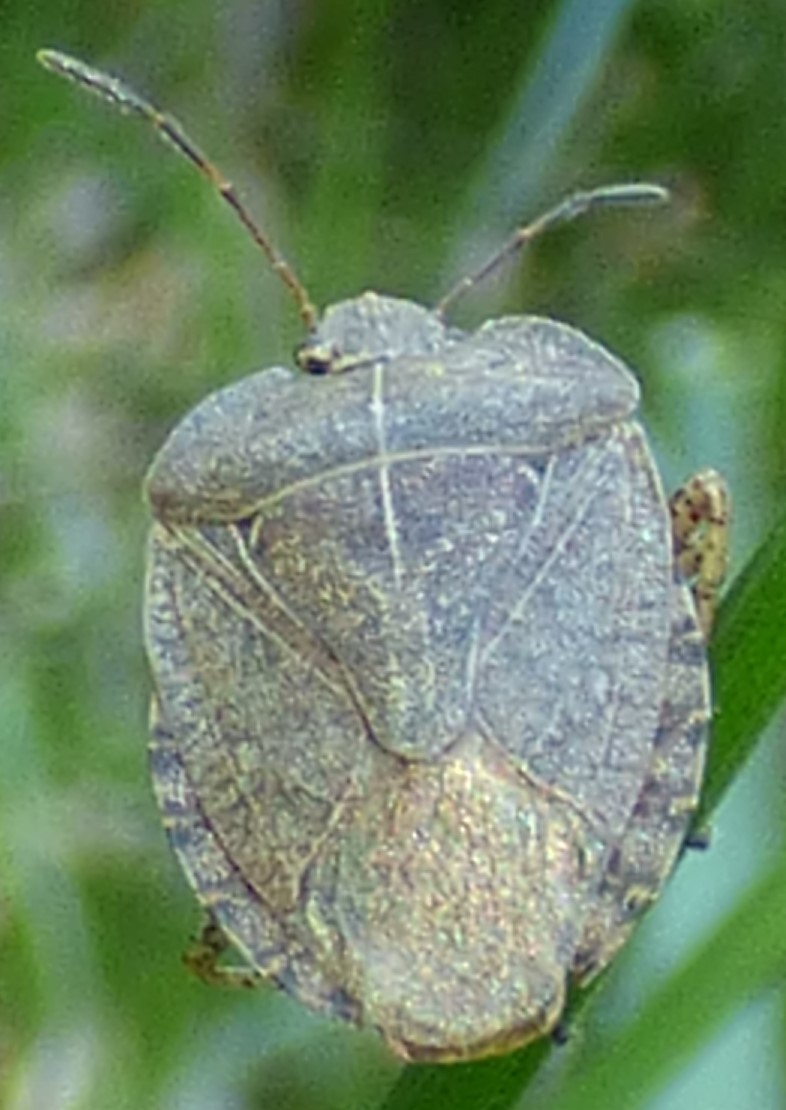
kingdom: Animalia
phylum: Arthropoda
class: Insecta
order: Hemiptera
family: Pentatomidae
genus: Menecles
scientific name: Menecles insertus
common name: Elf shoe stink bug
